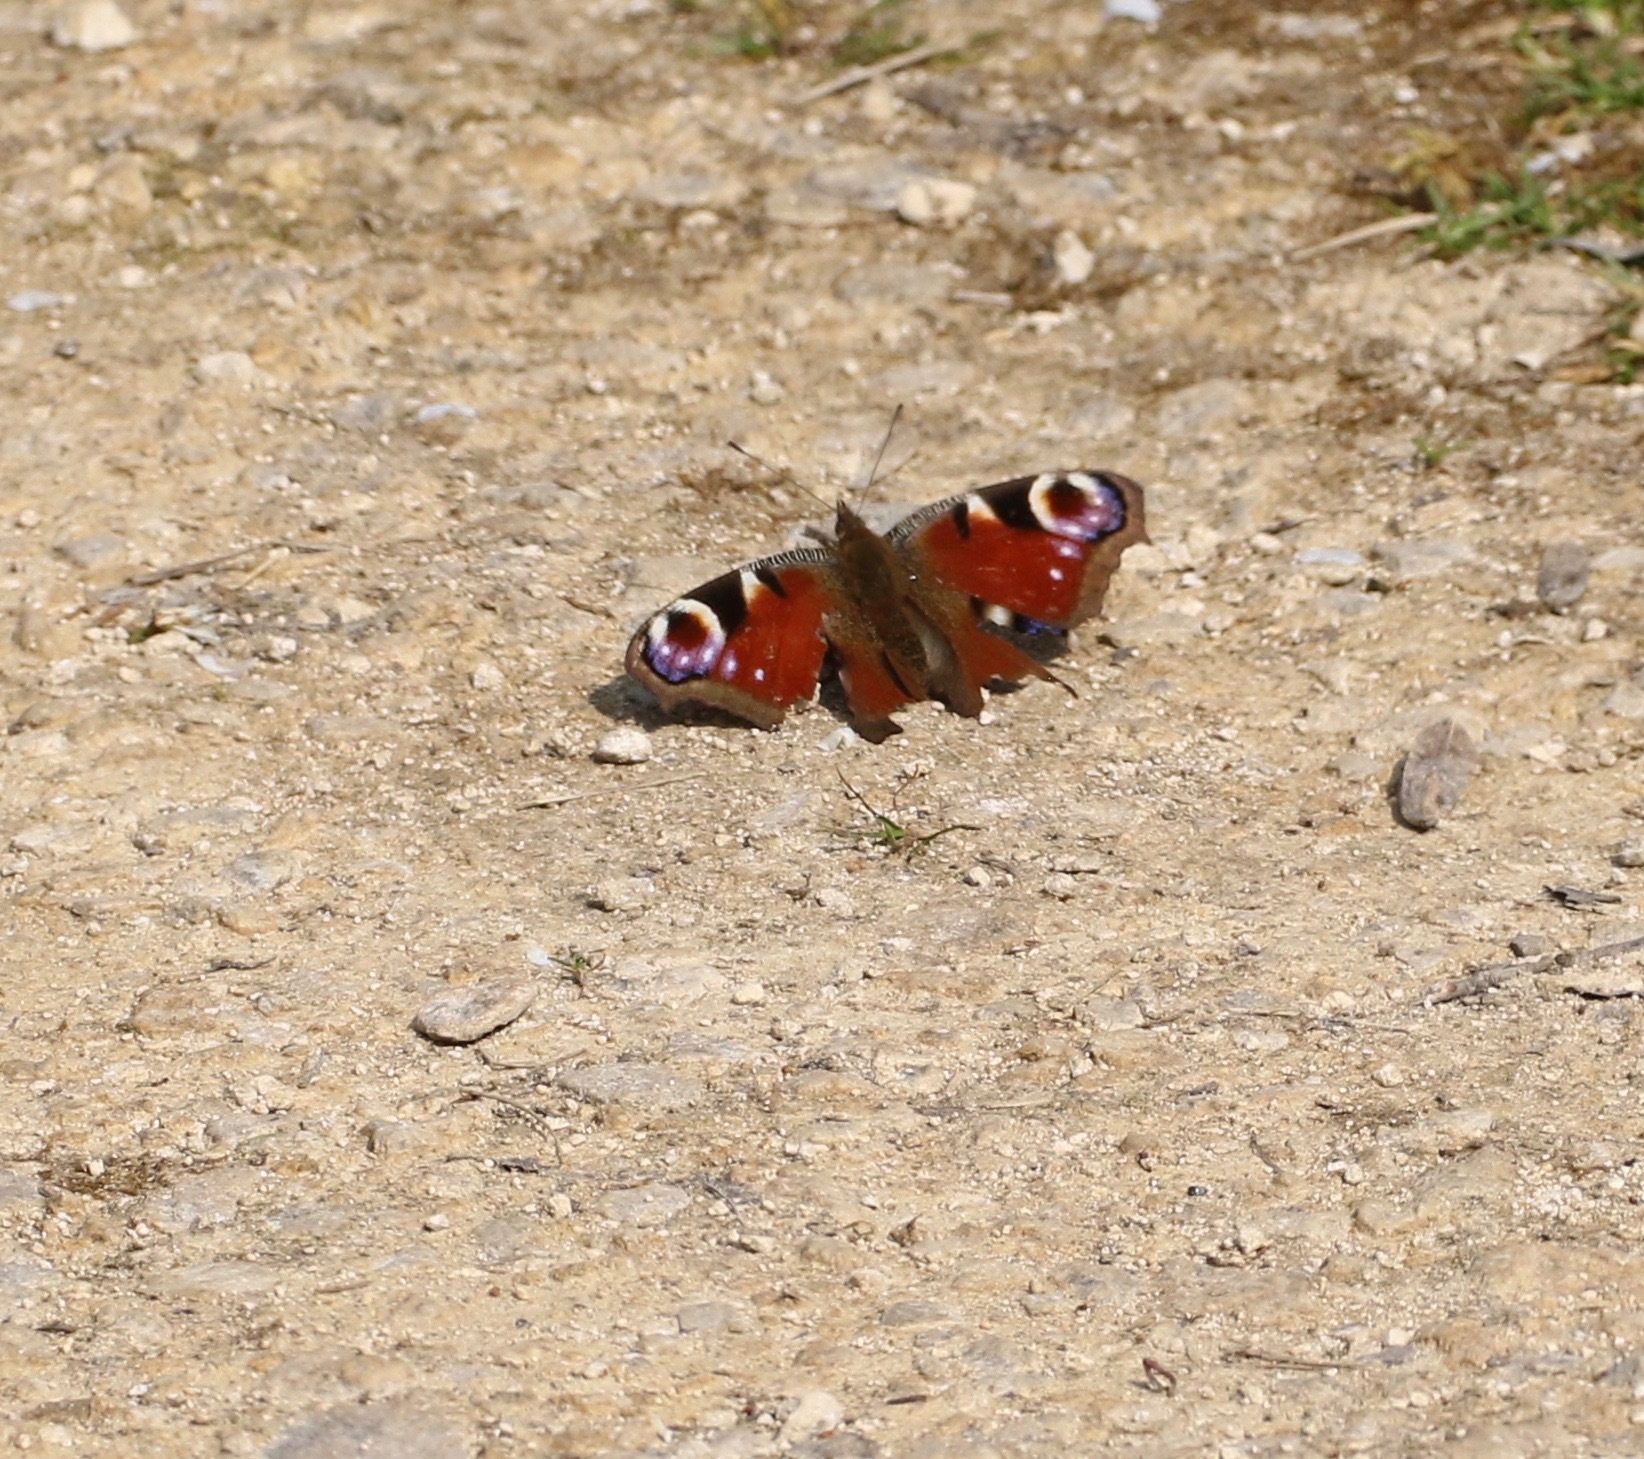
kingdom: Animalia
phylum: Arthropoda
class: Insecta
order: Lepidoptera
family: Nymphalidae
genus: Aglais
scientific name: Aglais io
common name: Peacock
